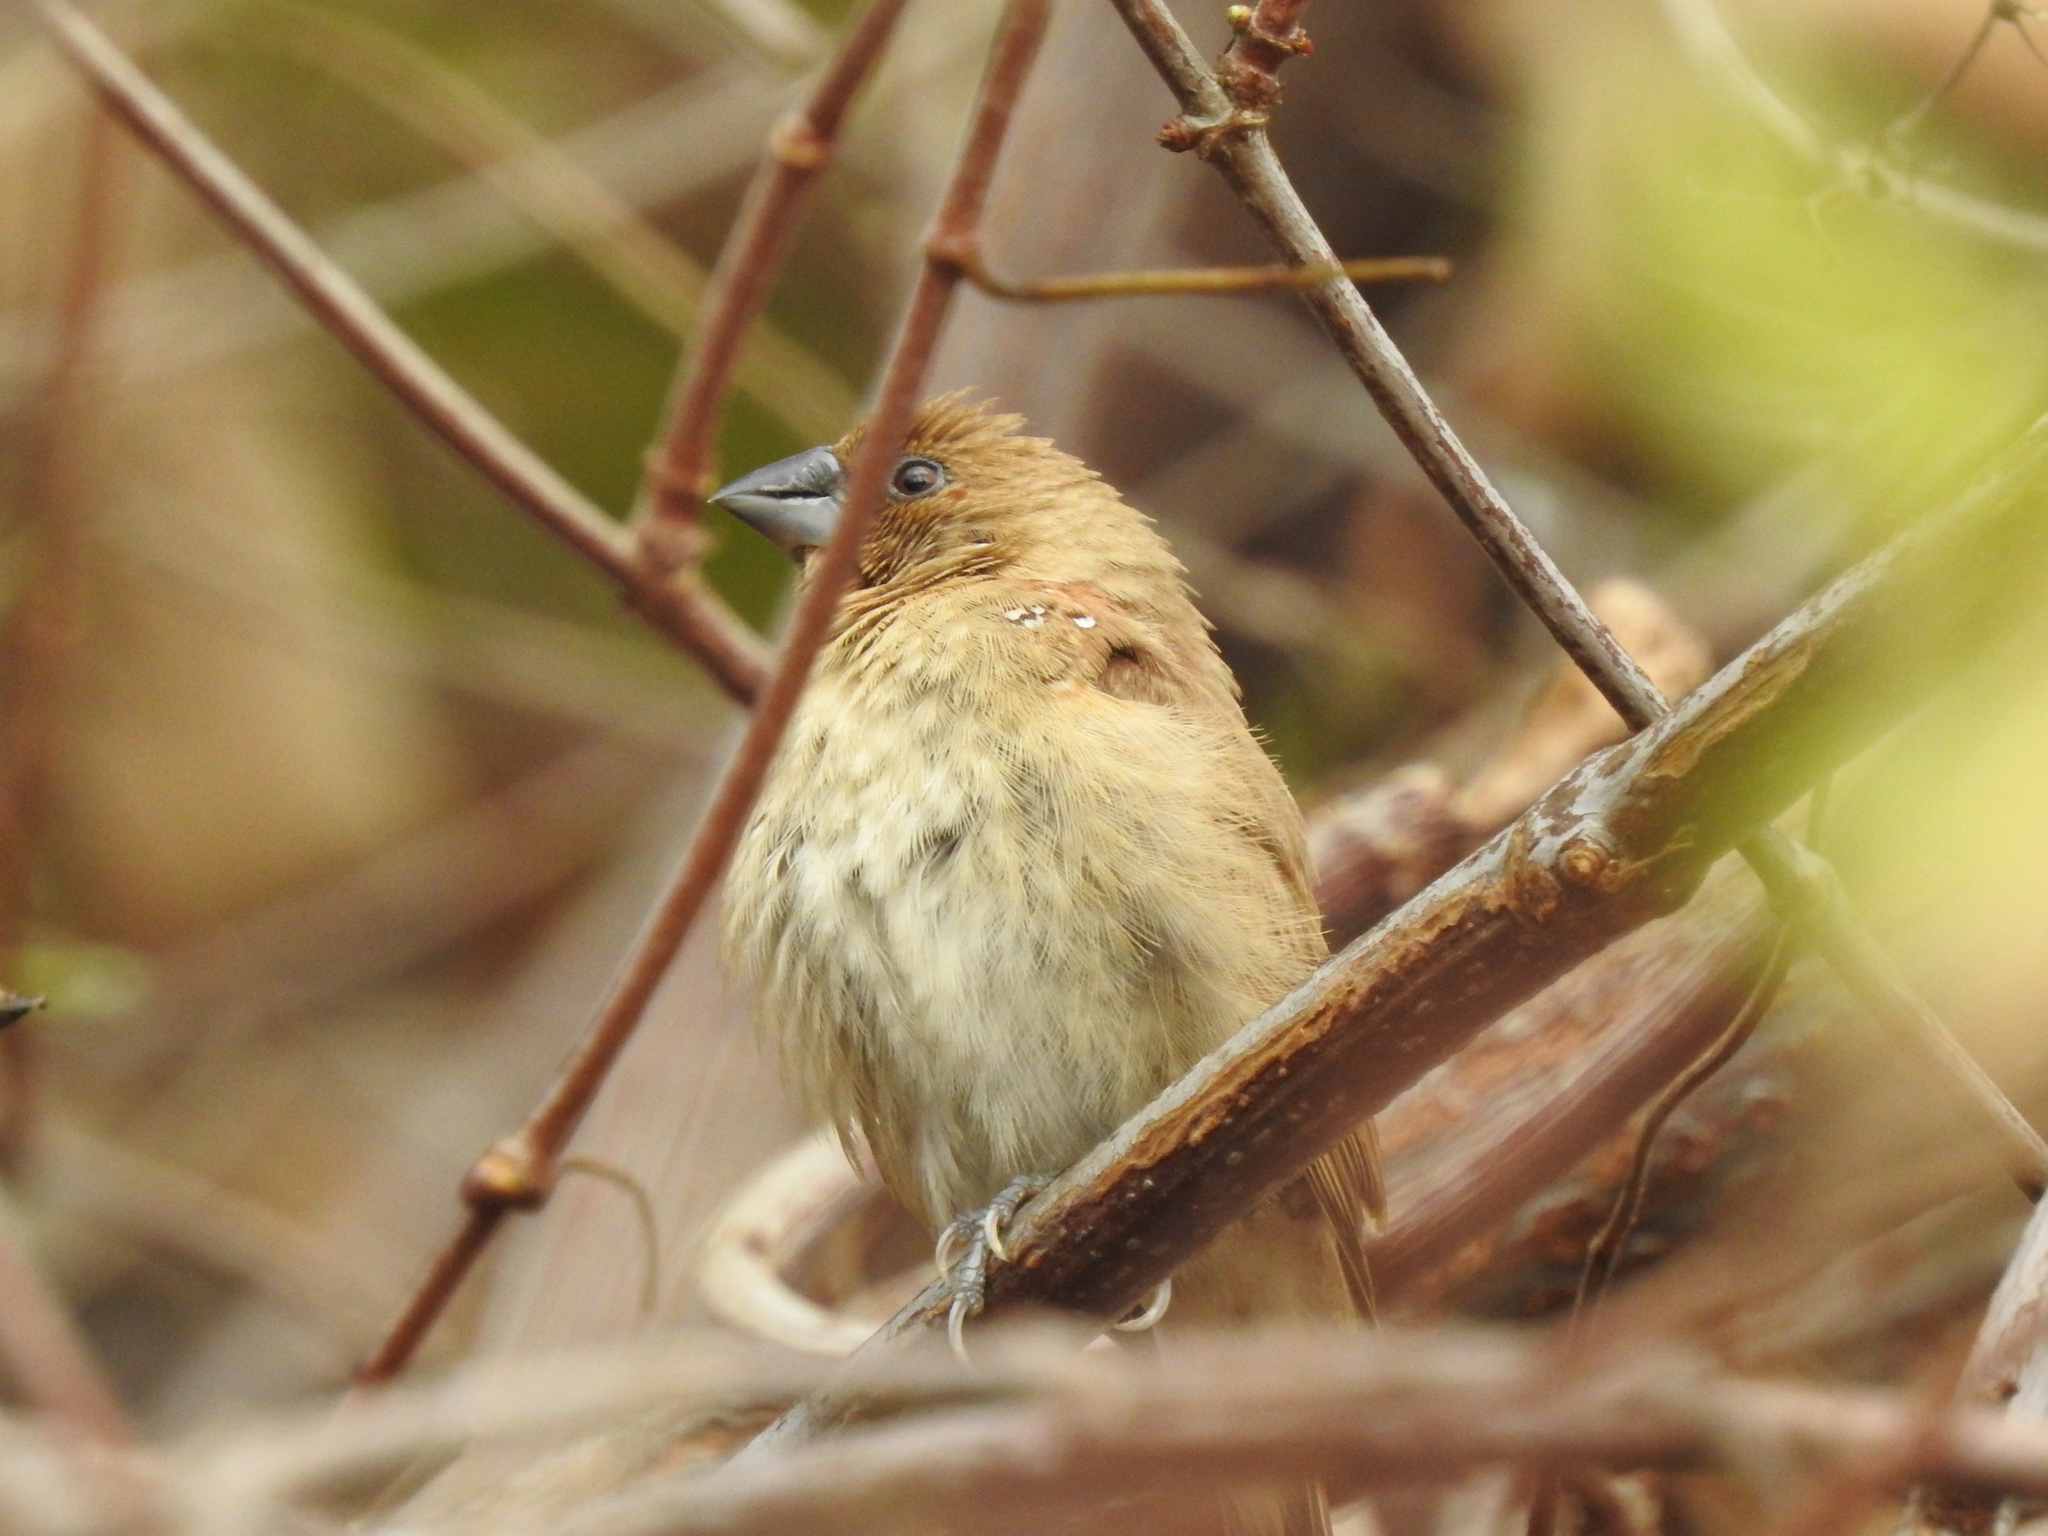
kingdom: Animalia
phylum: Chordata
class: Aves
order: Passeriformes
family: Estrildidae
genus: Lonchura
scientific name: Lonchura punctulata
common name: Scaly-breasted munia
